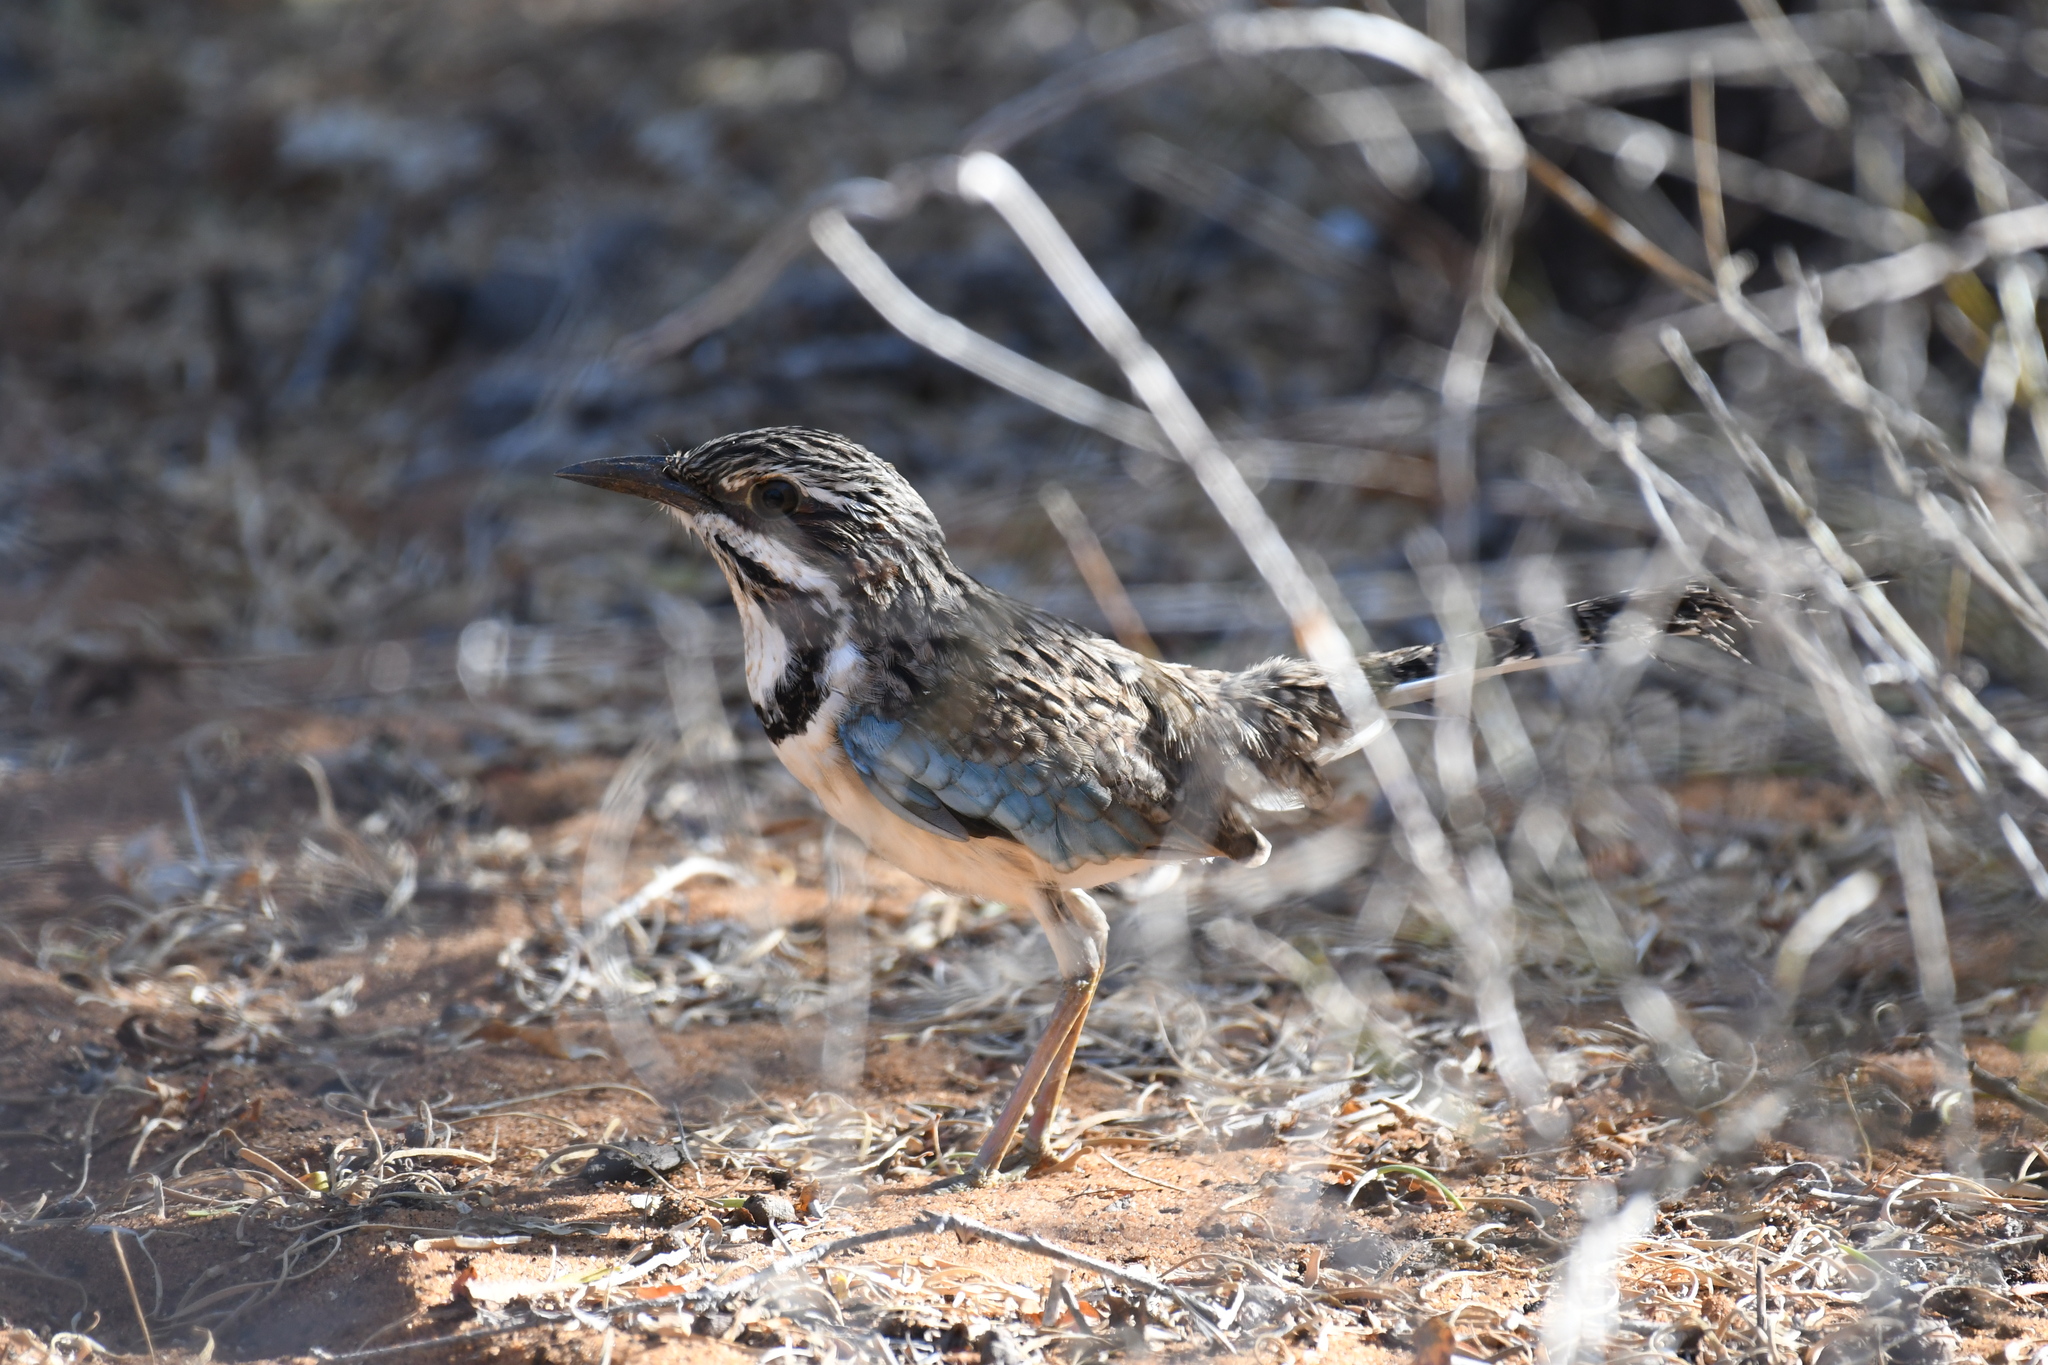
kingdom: Animalia
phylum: Chordata
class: Aves
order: Coraciiformes
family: Brachypteraciidae
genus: Uratelornis
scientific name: Uratelornis chimaera
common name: Long-tailed ground roller
